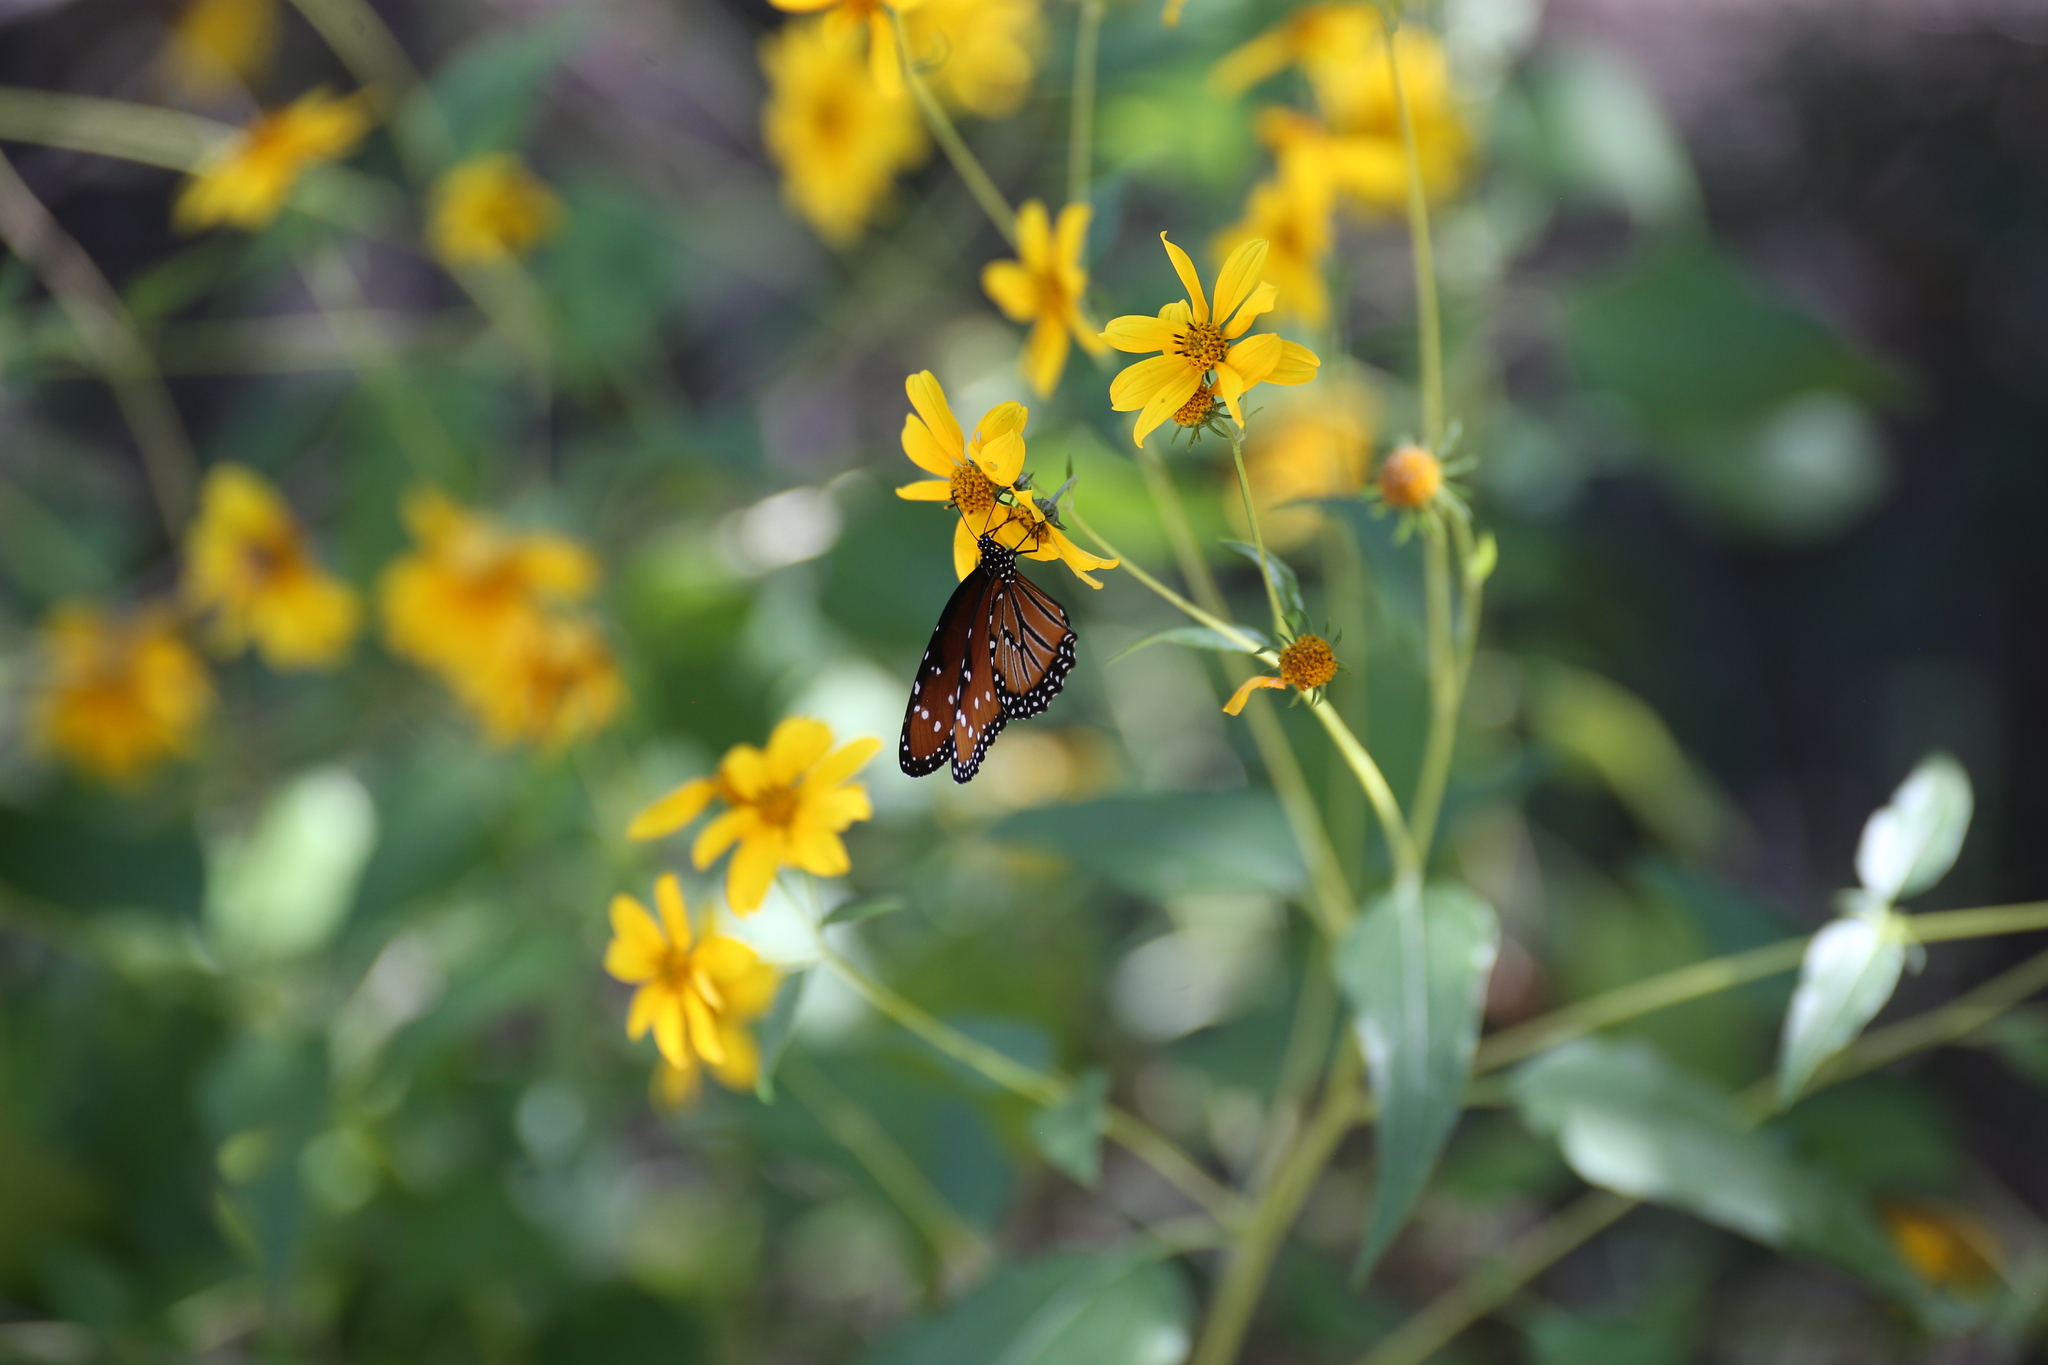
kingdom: Animalia
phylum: Arthropoda
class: Insecta
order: Lepidoptera
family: Nymphalidae
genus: Danaus
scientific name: Danaus gilippus
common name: Queen
